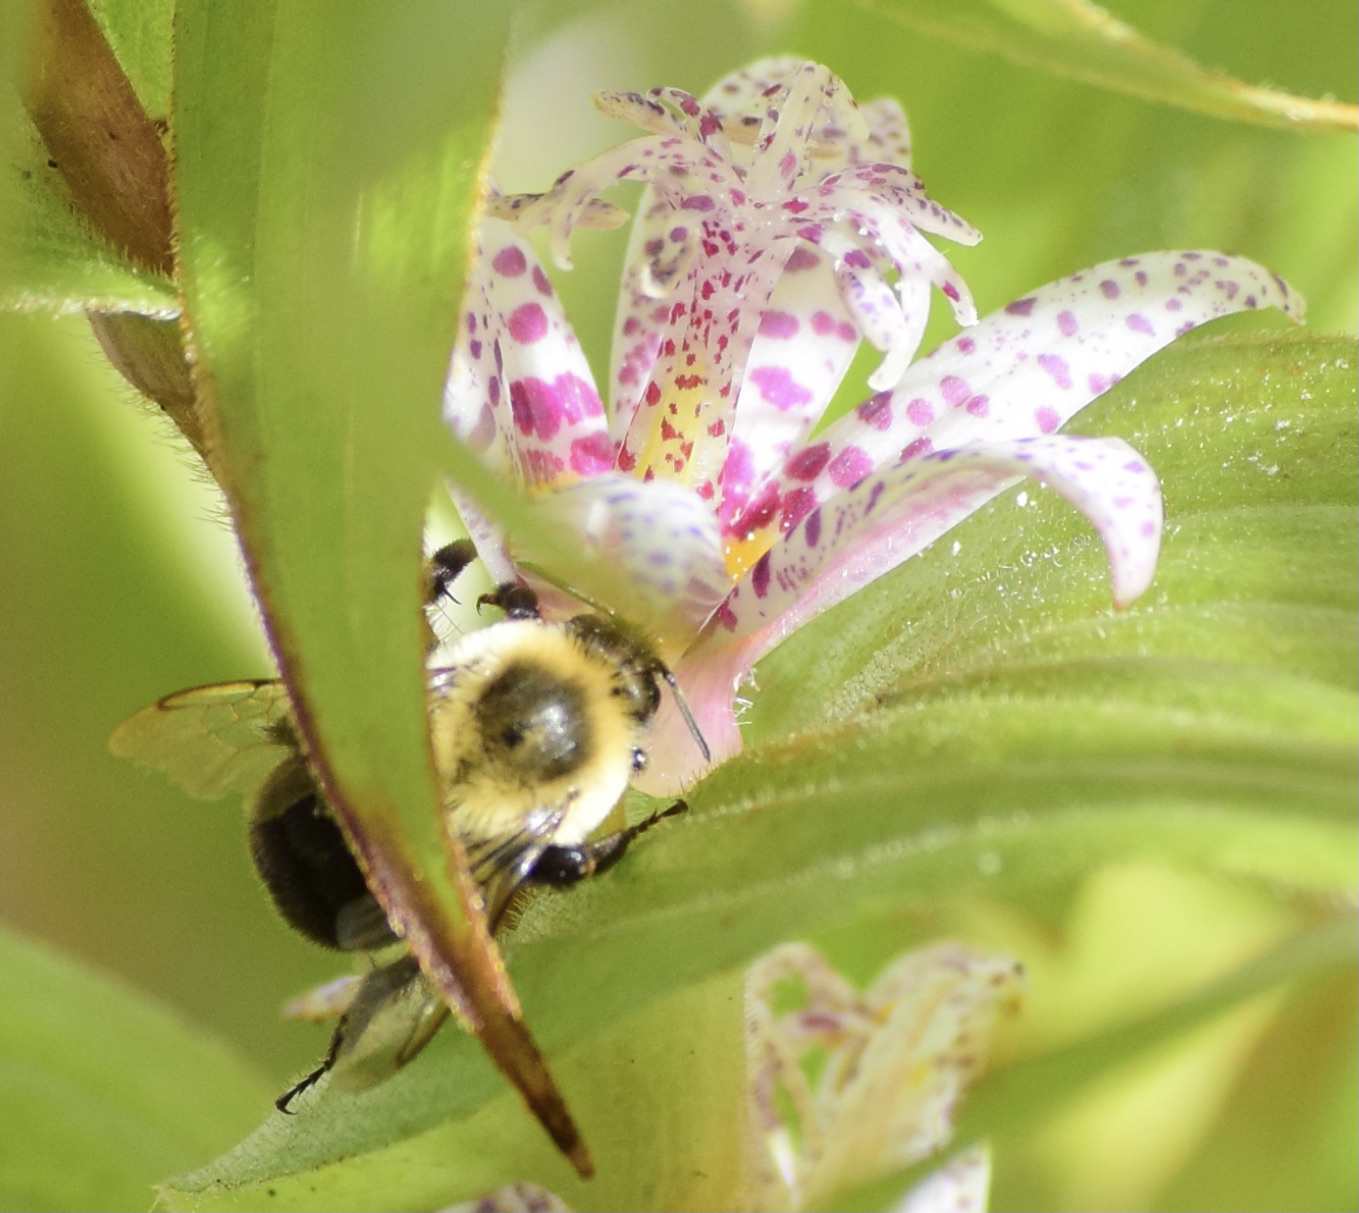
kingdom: Animalia
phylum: Arthropoda
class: Insecta
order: Hymenoptera
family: Apidae
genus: Bombus
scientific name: Bombus impatiens
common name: Common eastern bumble bee
